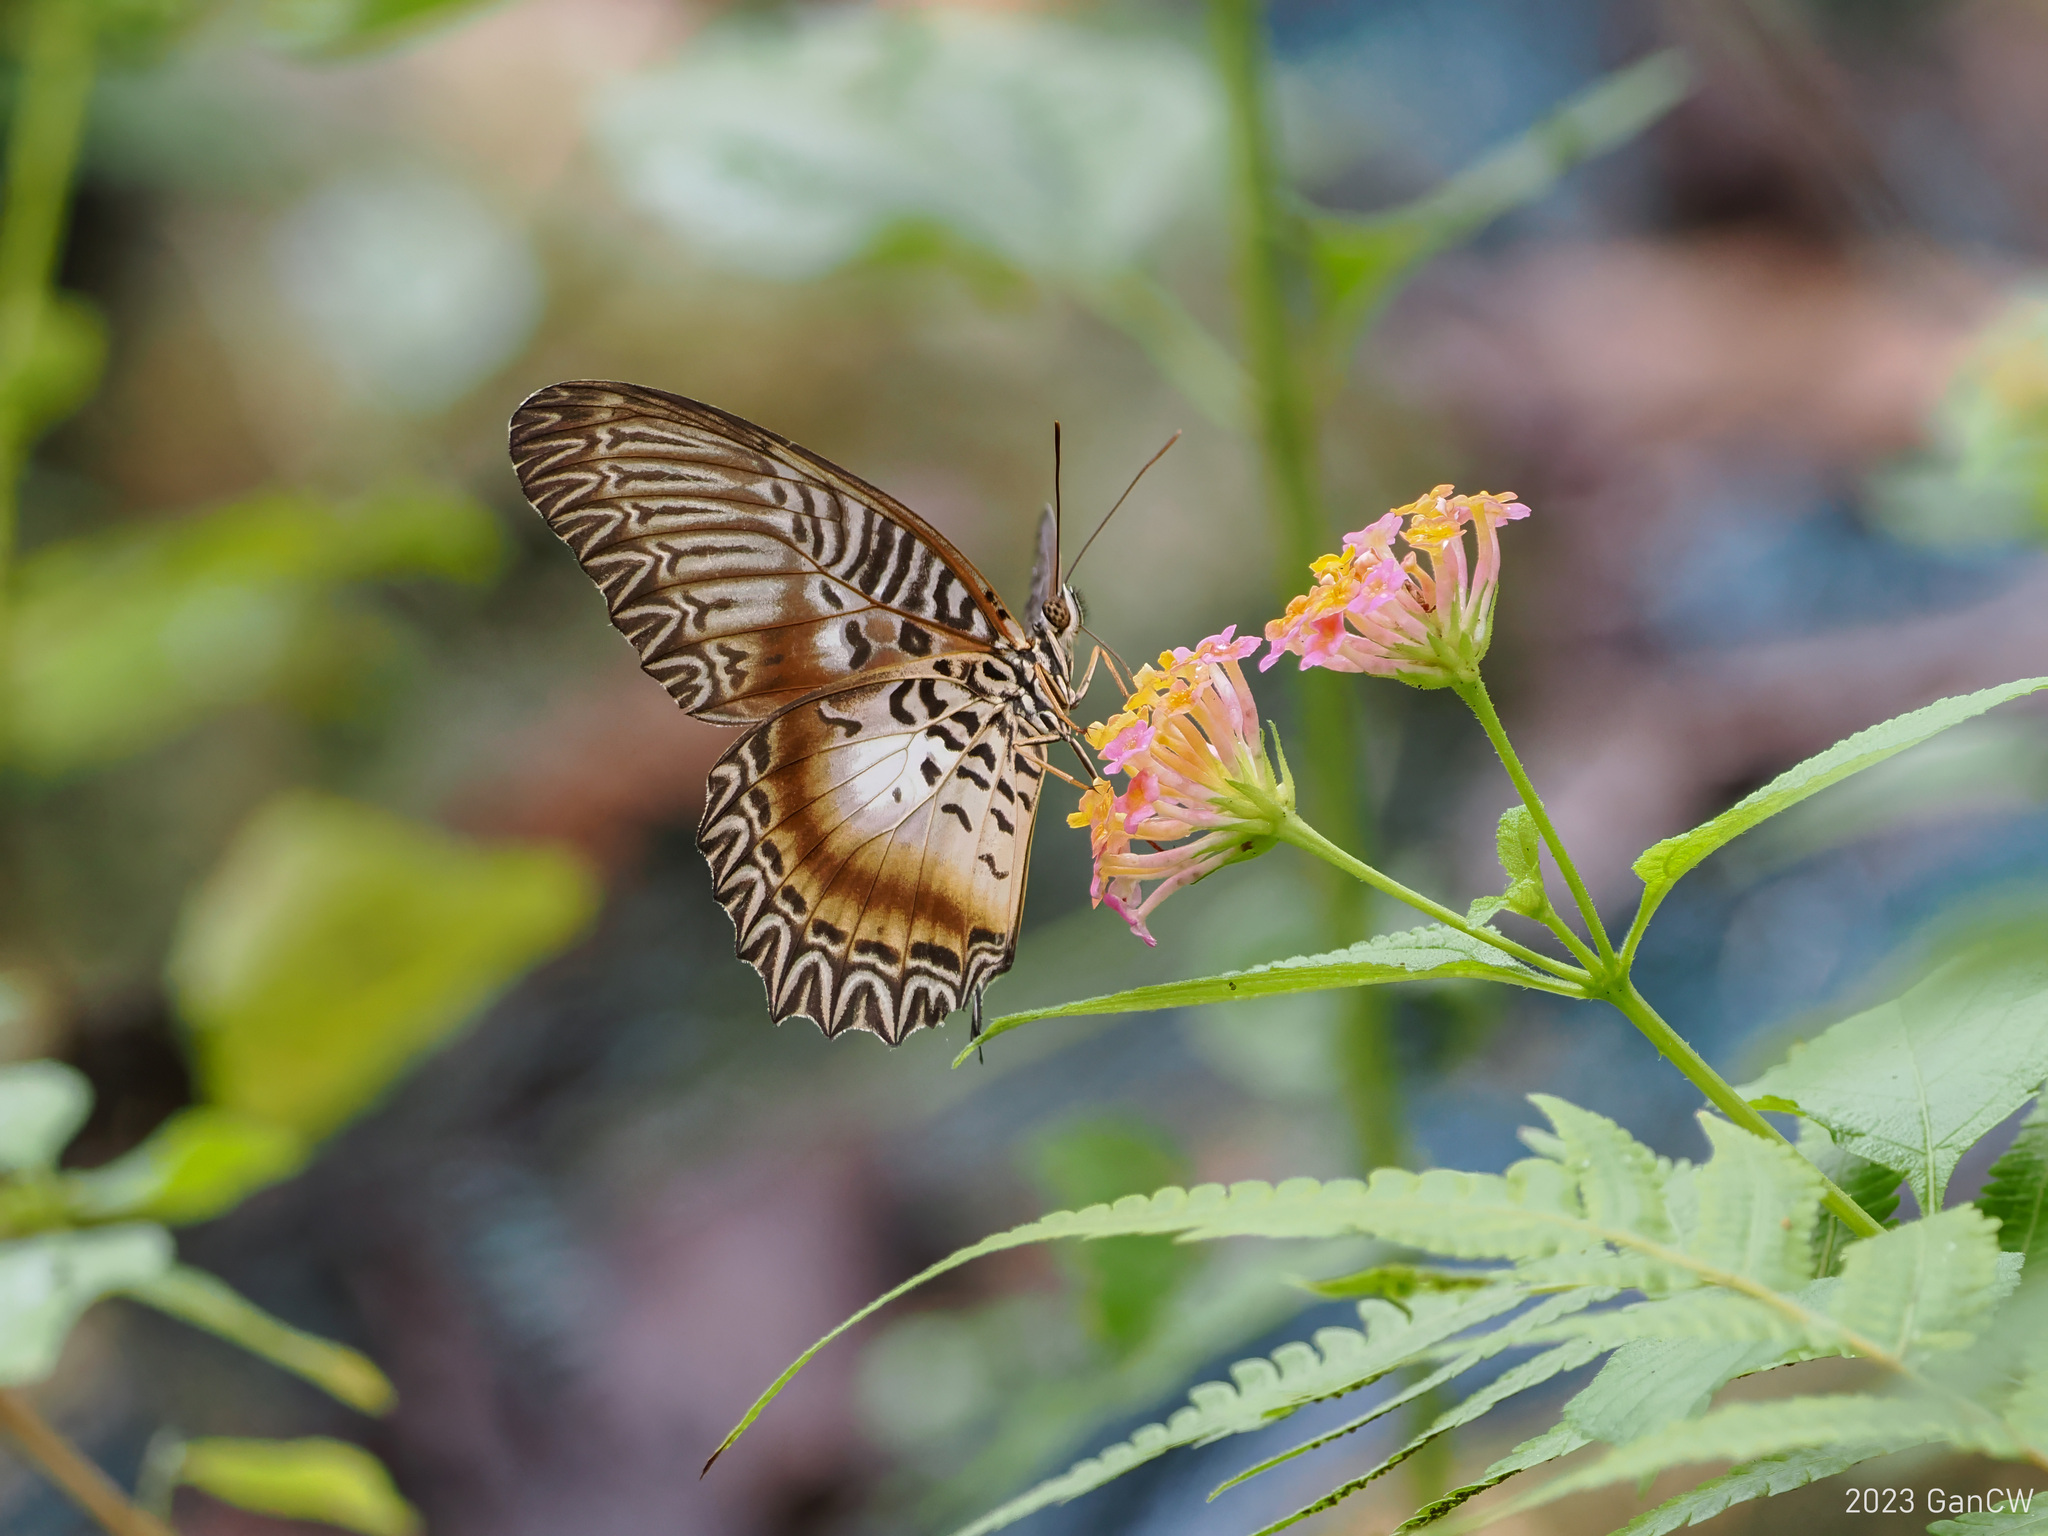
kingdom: Animalia
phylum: Arthropoda
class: Insecta
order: Lepidoptera
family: Nymphalidae
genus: Cethosia
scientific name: Cethosia myrina
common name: Violet lacewing
